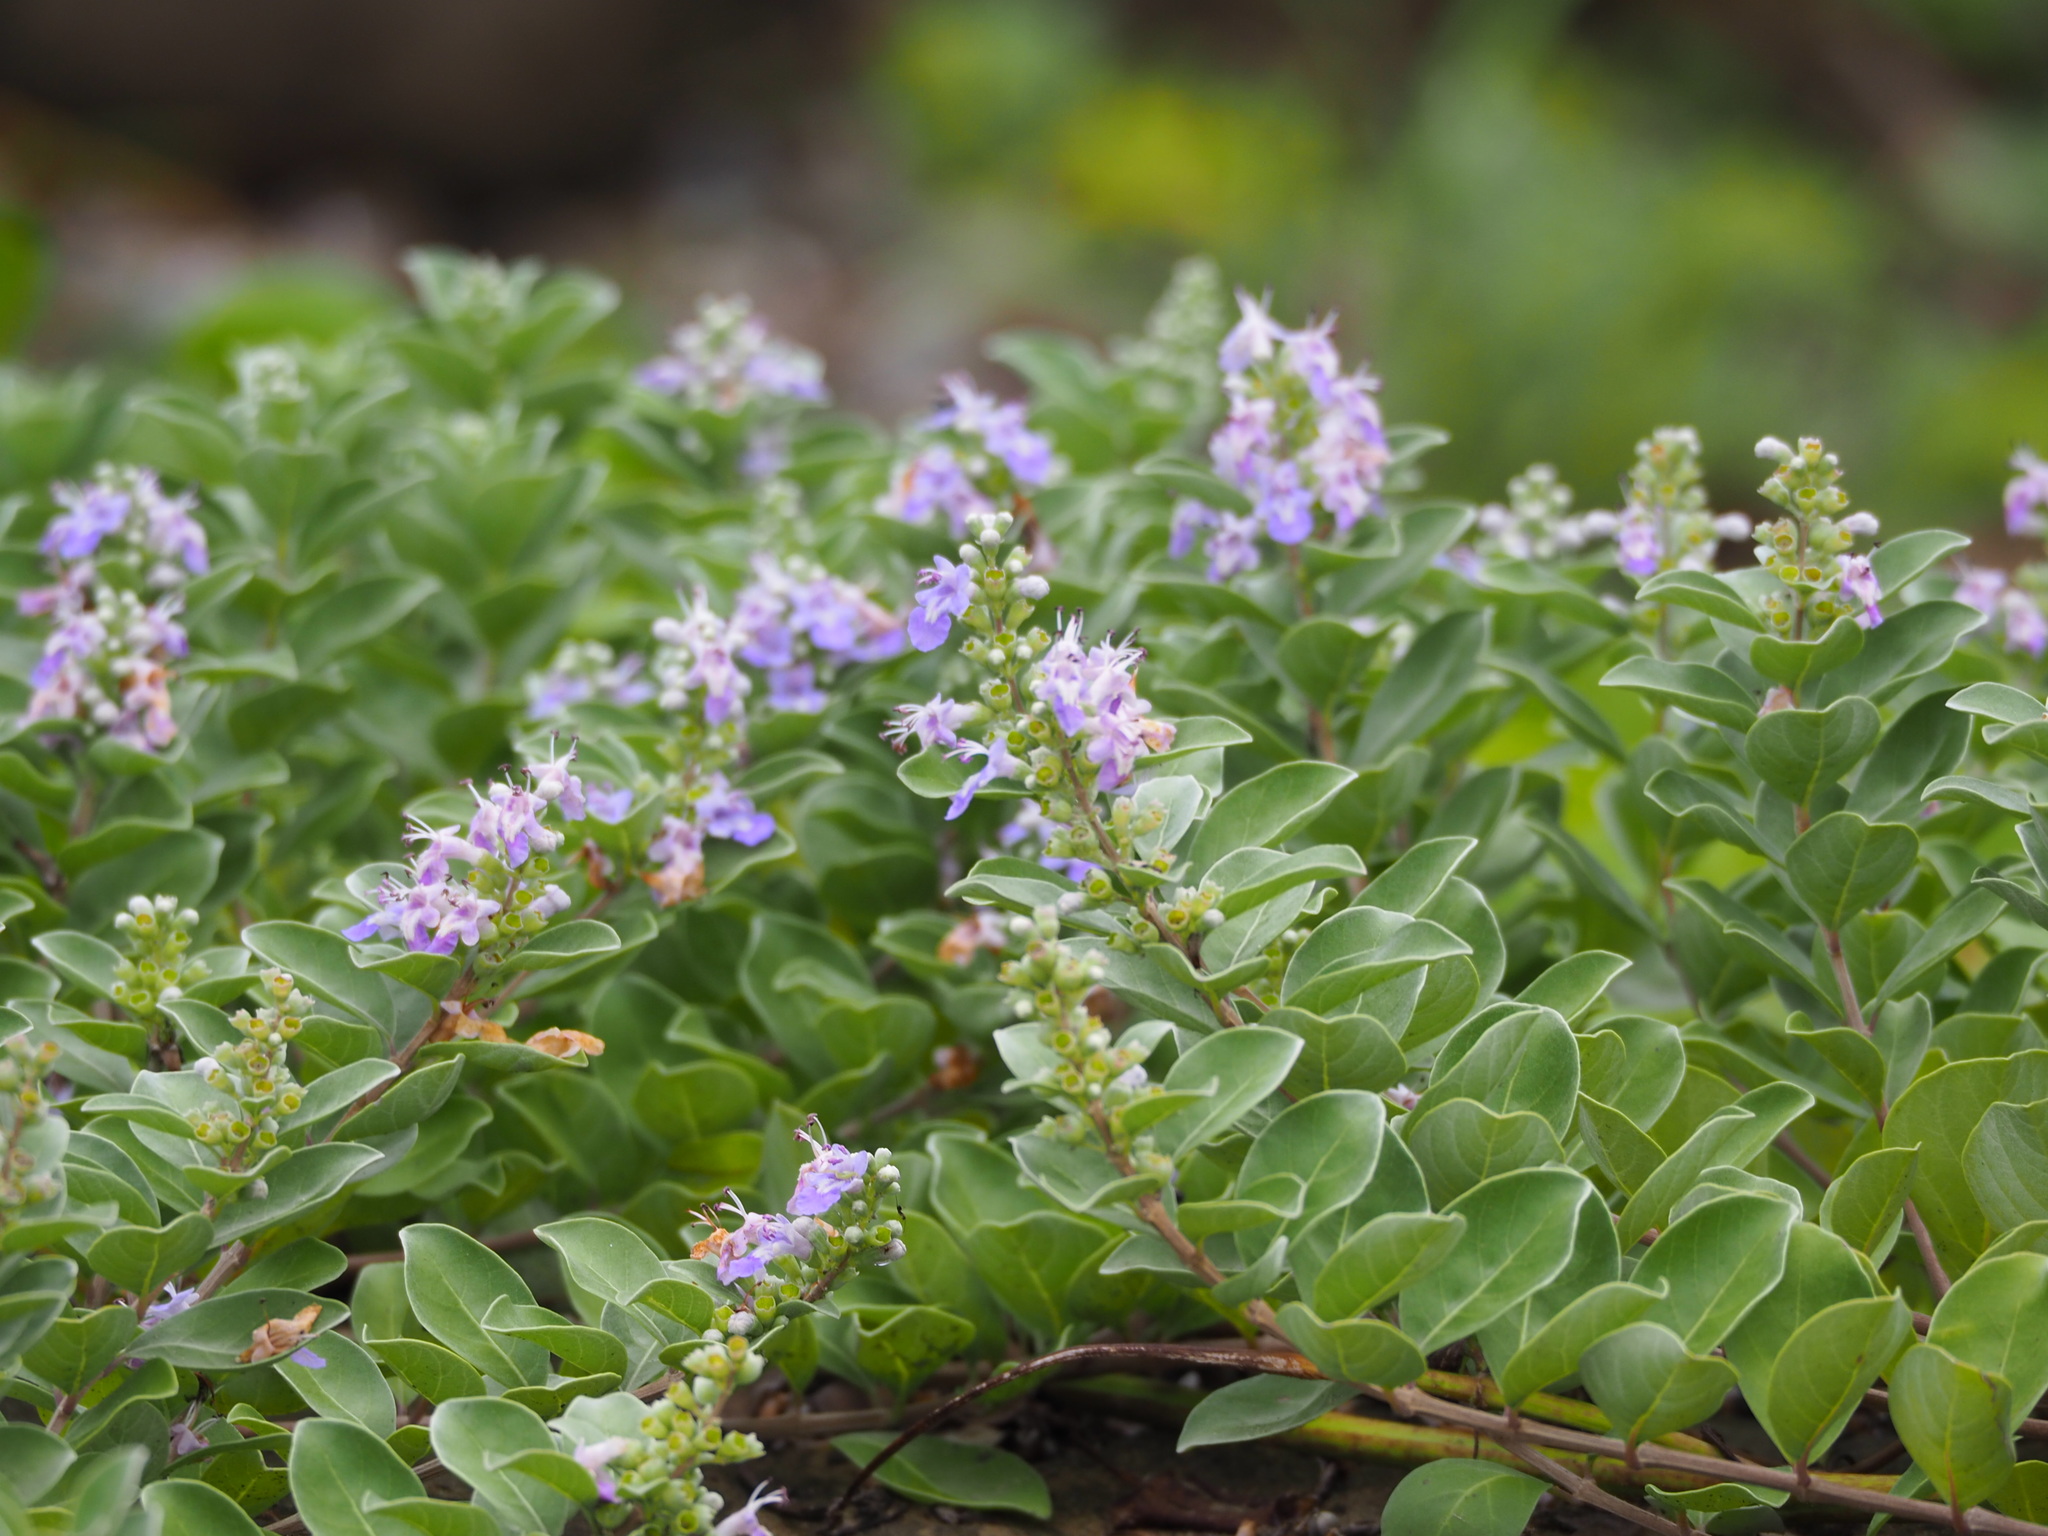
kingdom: Plantae
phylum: Tracheophyta
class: Magnoliopsida
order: Lamiales
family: Lamiaceae
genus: Vitex
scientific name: Vitex rotundifolia
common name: Beach vitex
